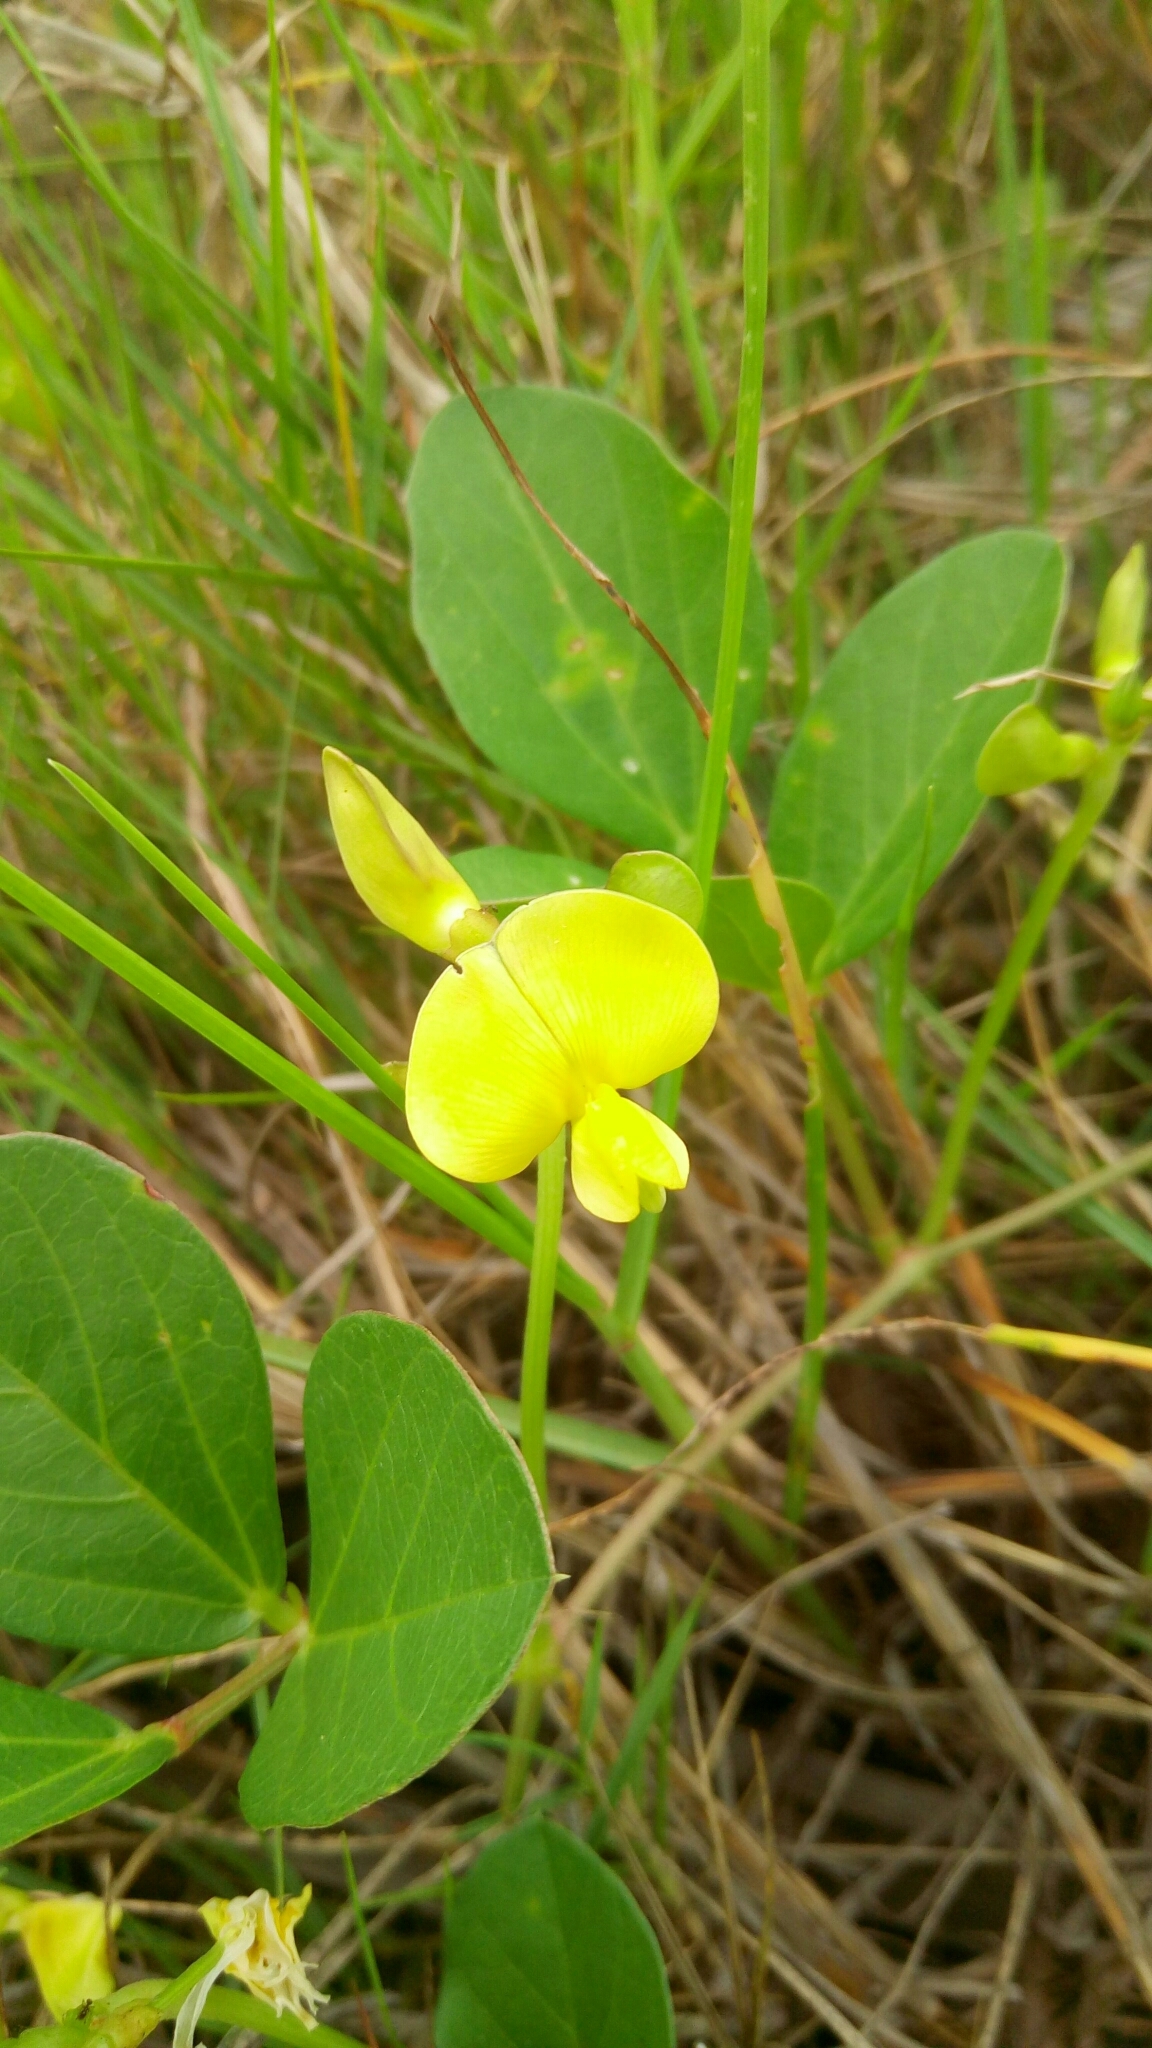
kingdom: Plantae
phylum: Tracheophyta
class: Magnoliopsida
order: Fabales
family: Fabaceae
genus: Vigna
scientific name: Vigna marina
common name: Dune-bean
